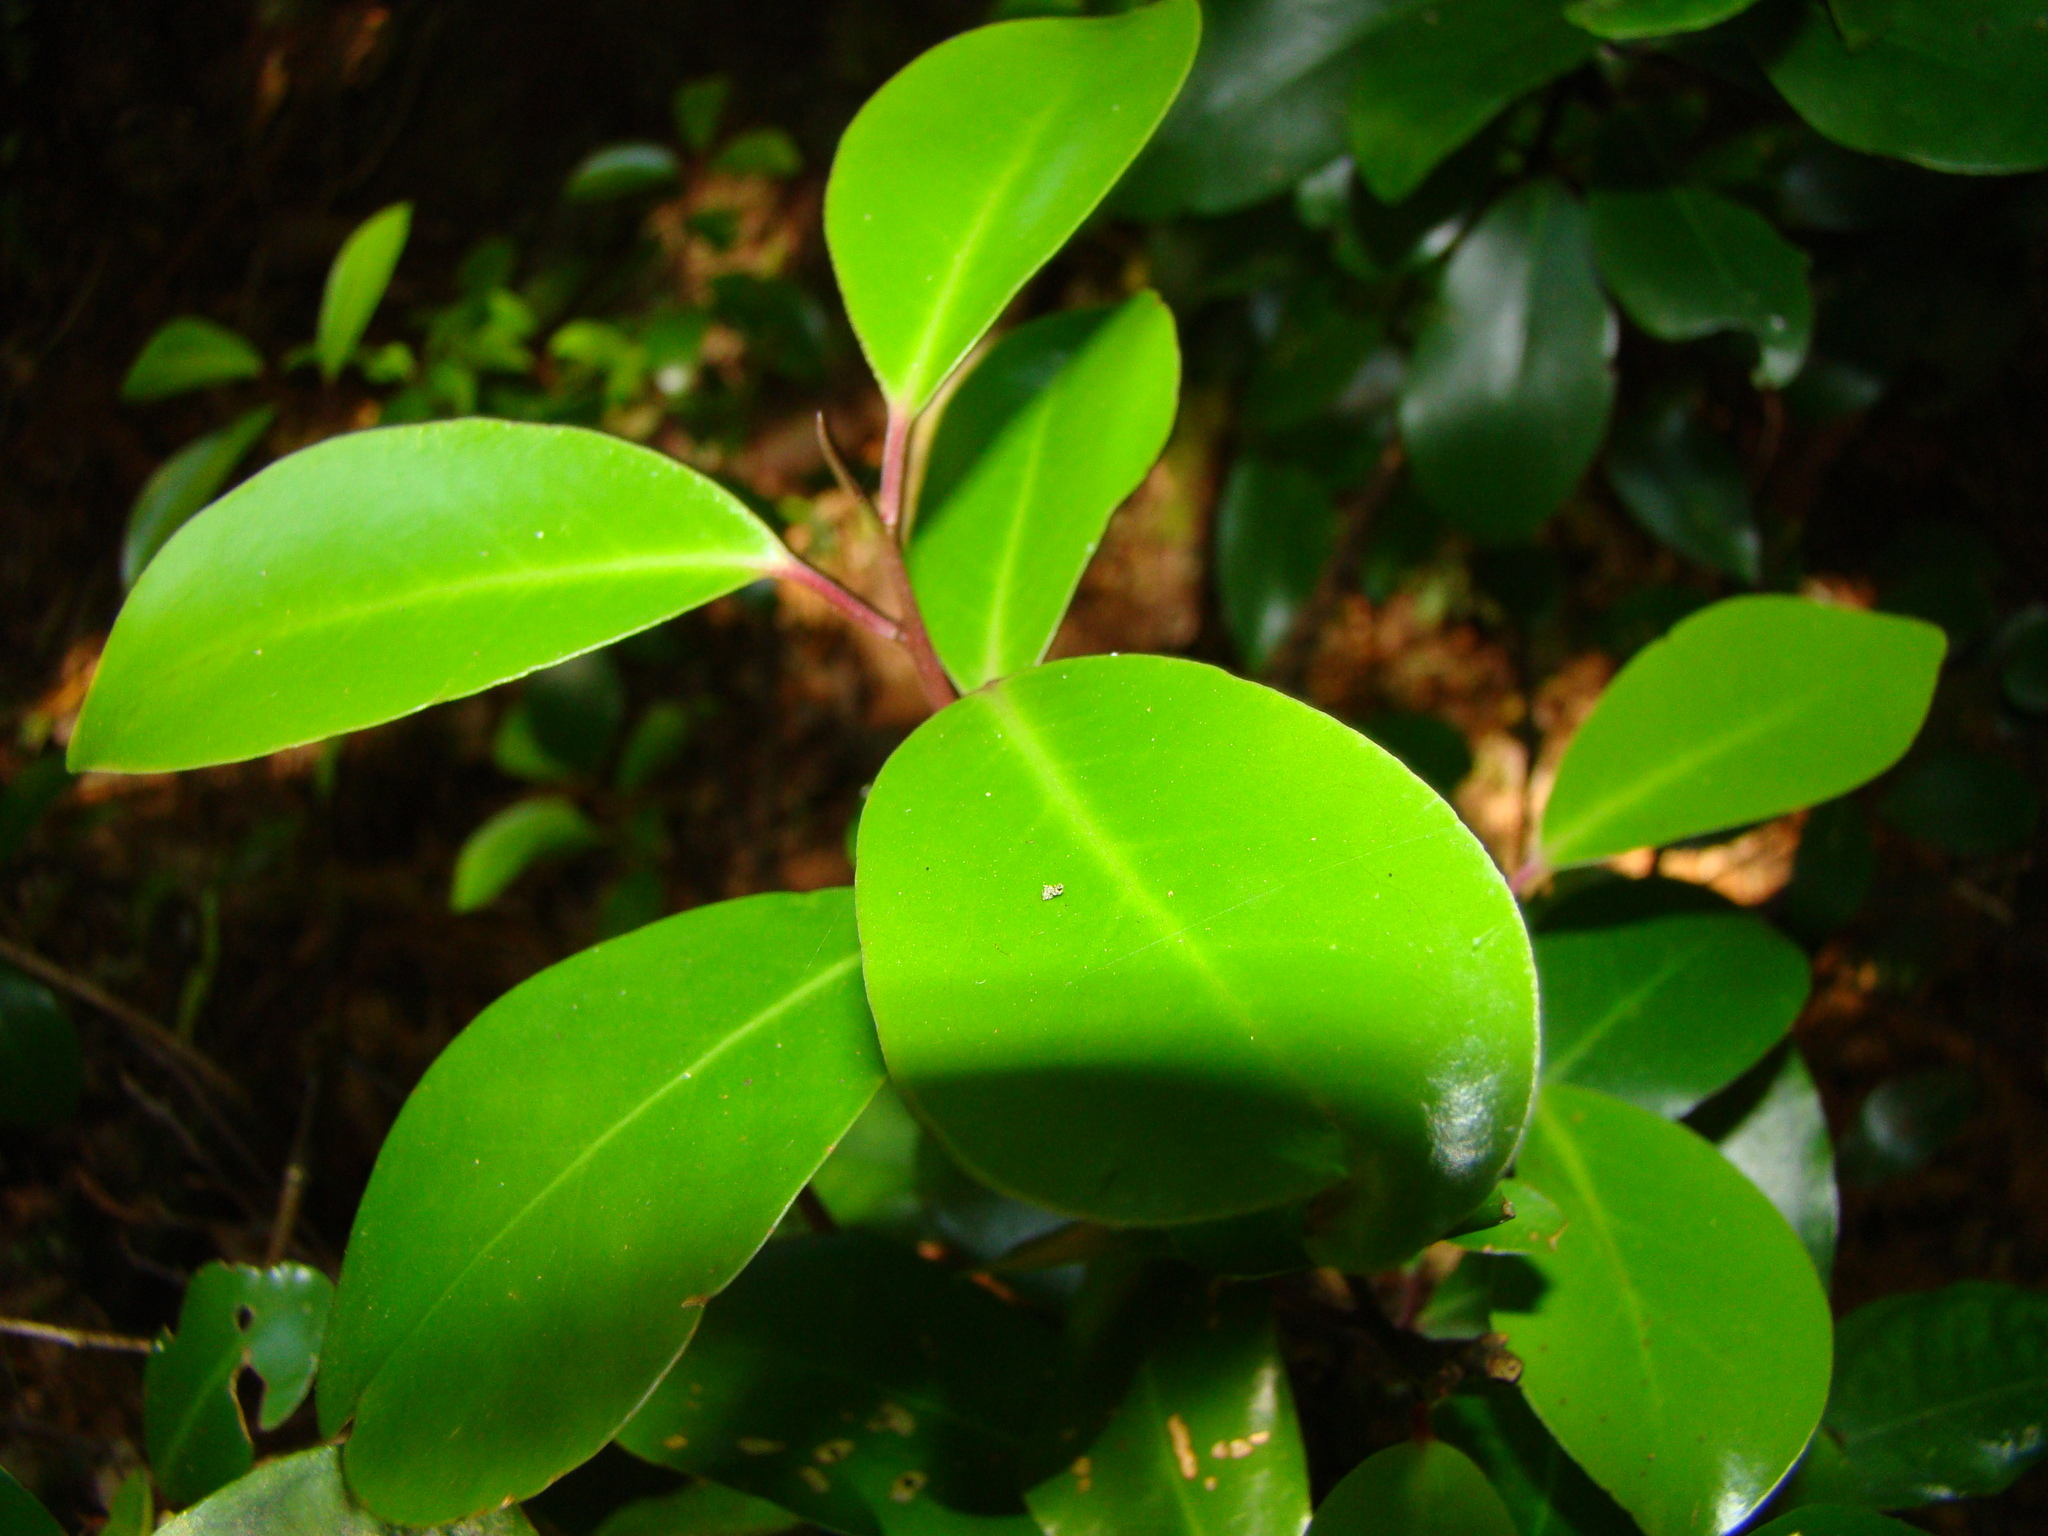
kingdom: Plantae
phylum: Tracheophyta
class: Magnoliopsida
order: Canellales
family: Winteraceae
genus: Pseudowintera
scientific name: Pseudowintera axillaris
